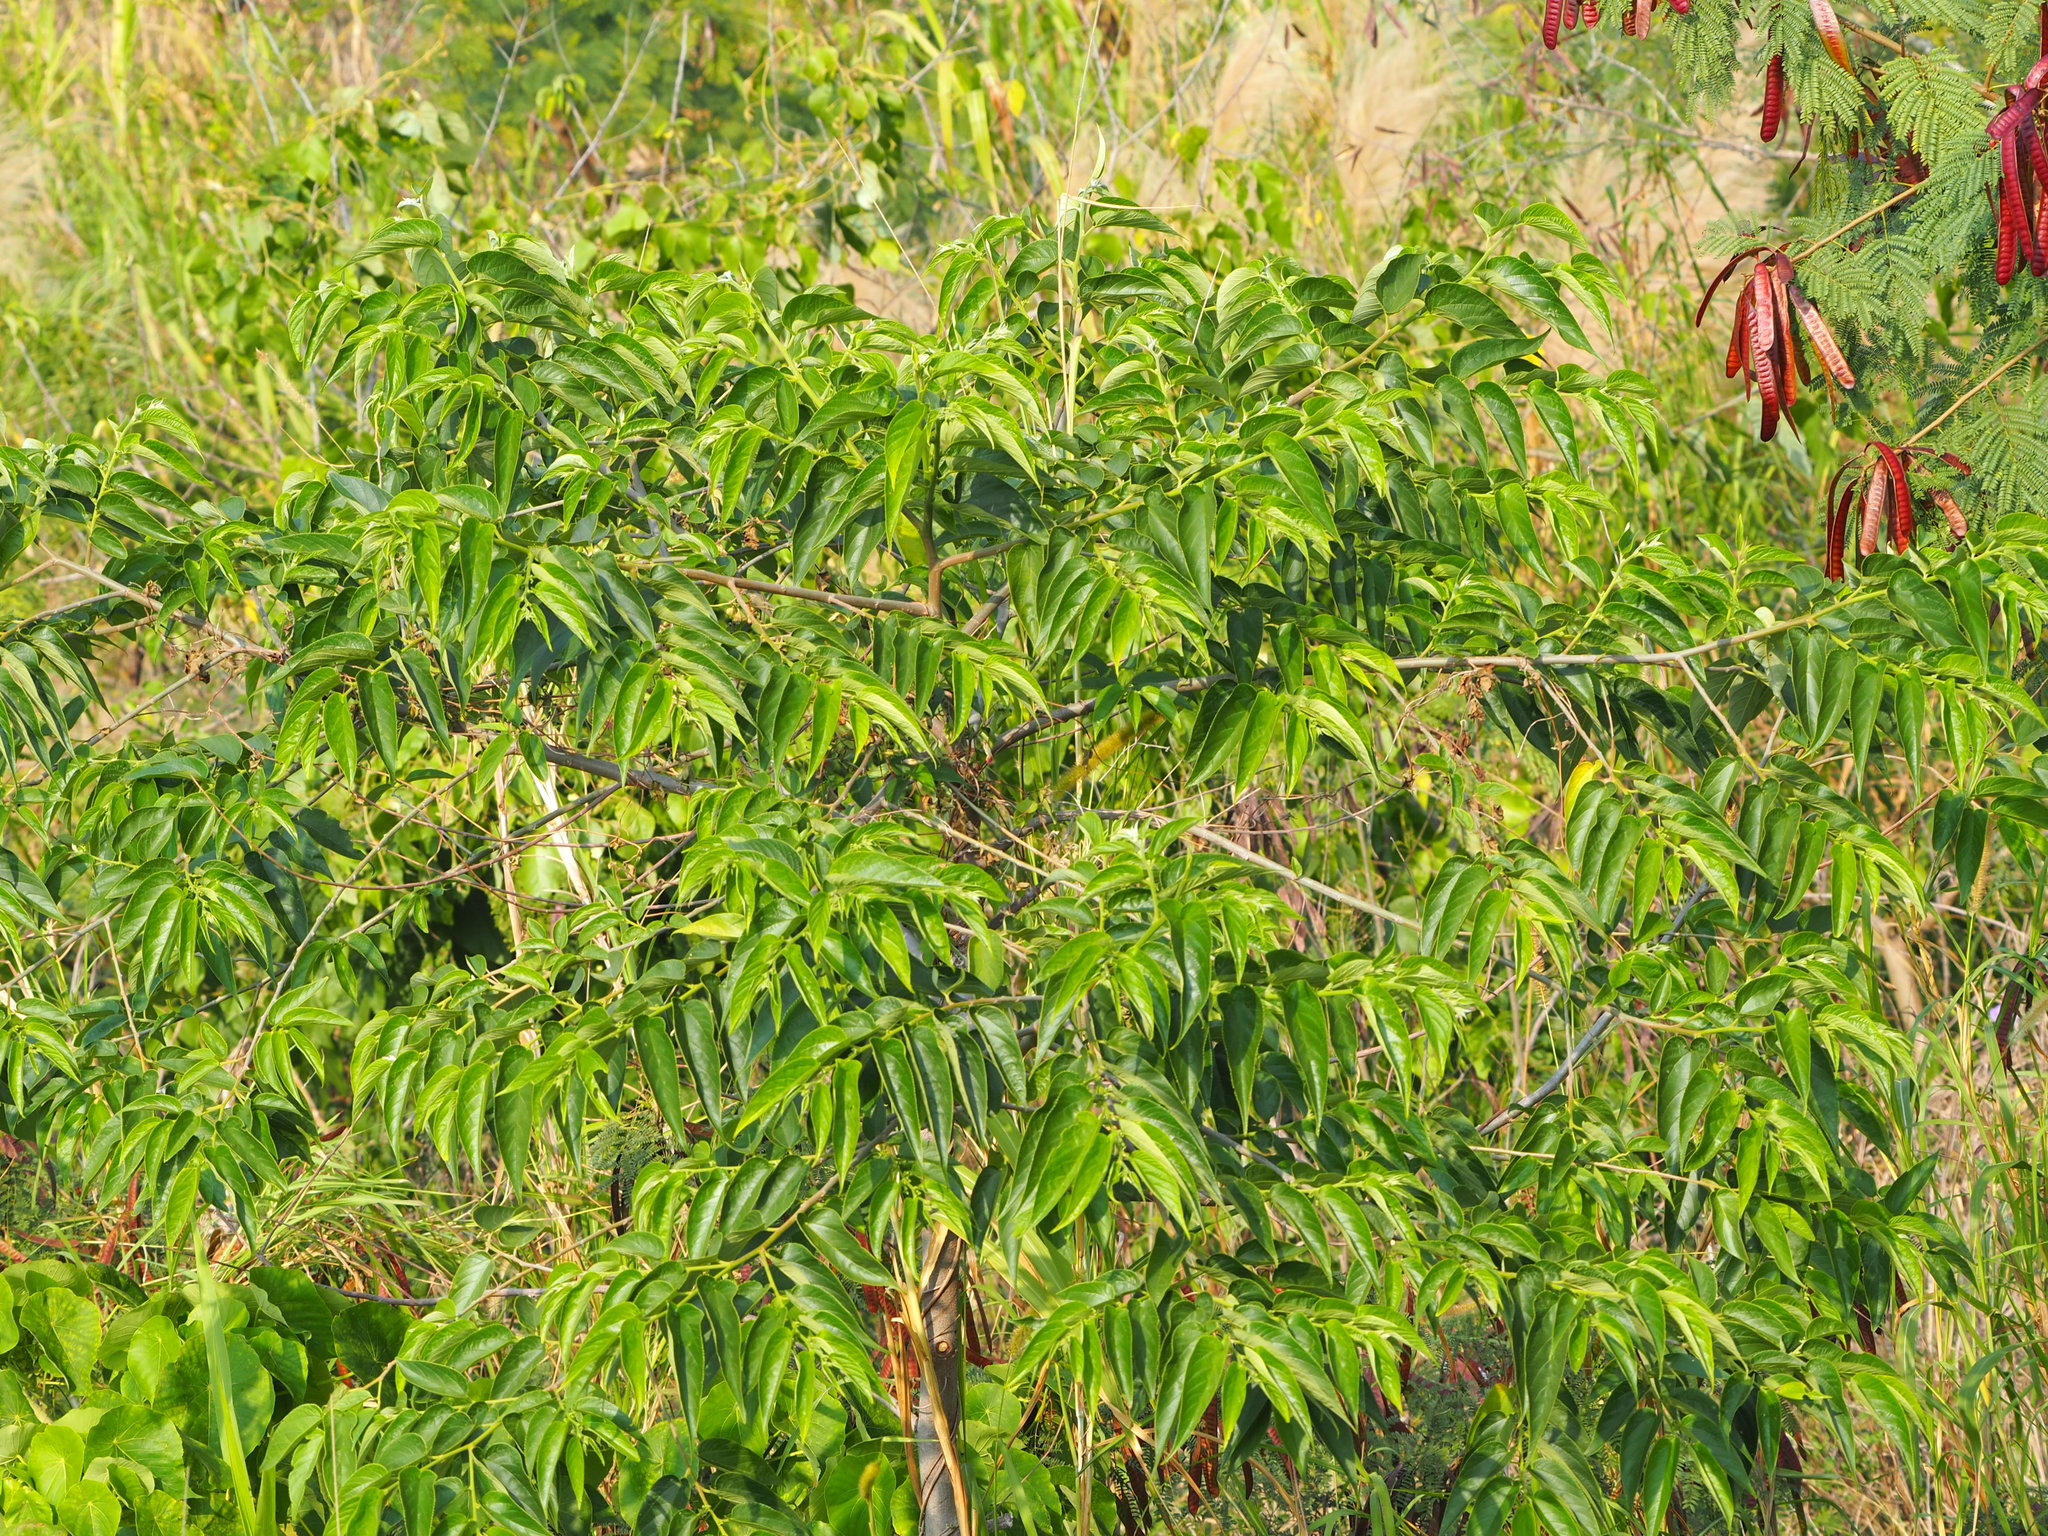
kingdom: Plantae
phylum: Tracheophyta
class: Magnoliopsida
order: Rosales
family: Cannabaceae
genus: Trema
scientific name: Trema orientale
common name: Indian charcoal tree
